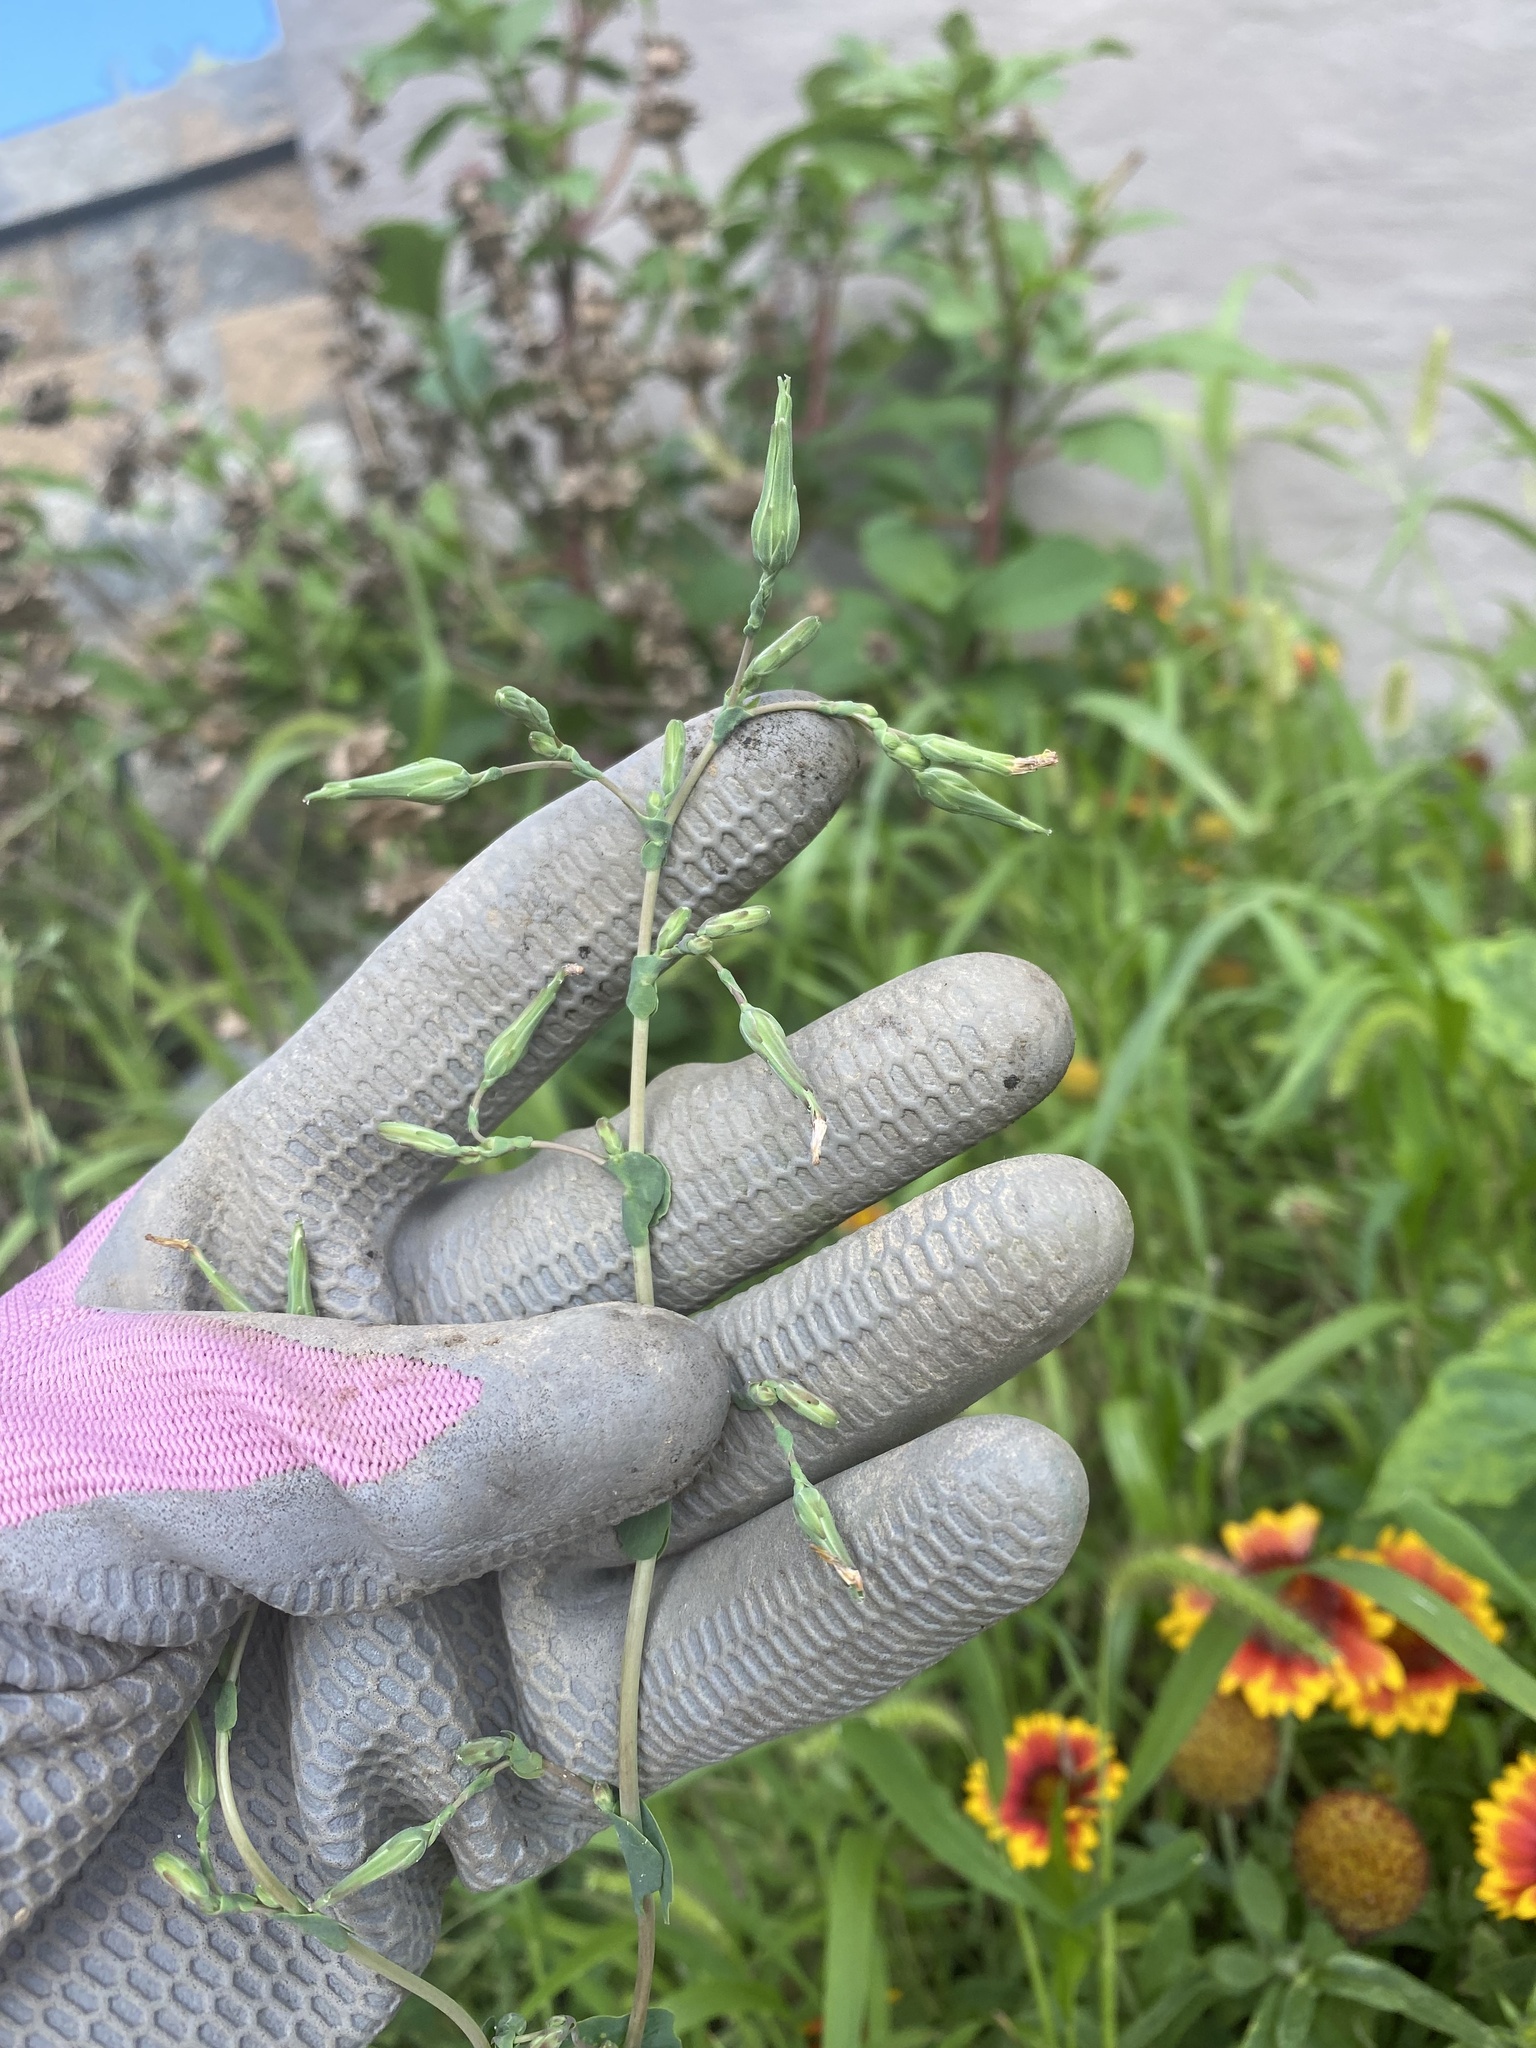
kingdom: Plantae
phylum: Tracheophyta
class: Magnoliopsida
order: Asterales
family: Asteraceae
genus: Lactuca
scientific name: Lactuca serriola
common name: Prickly lettuce
